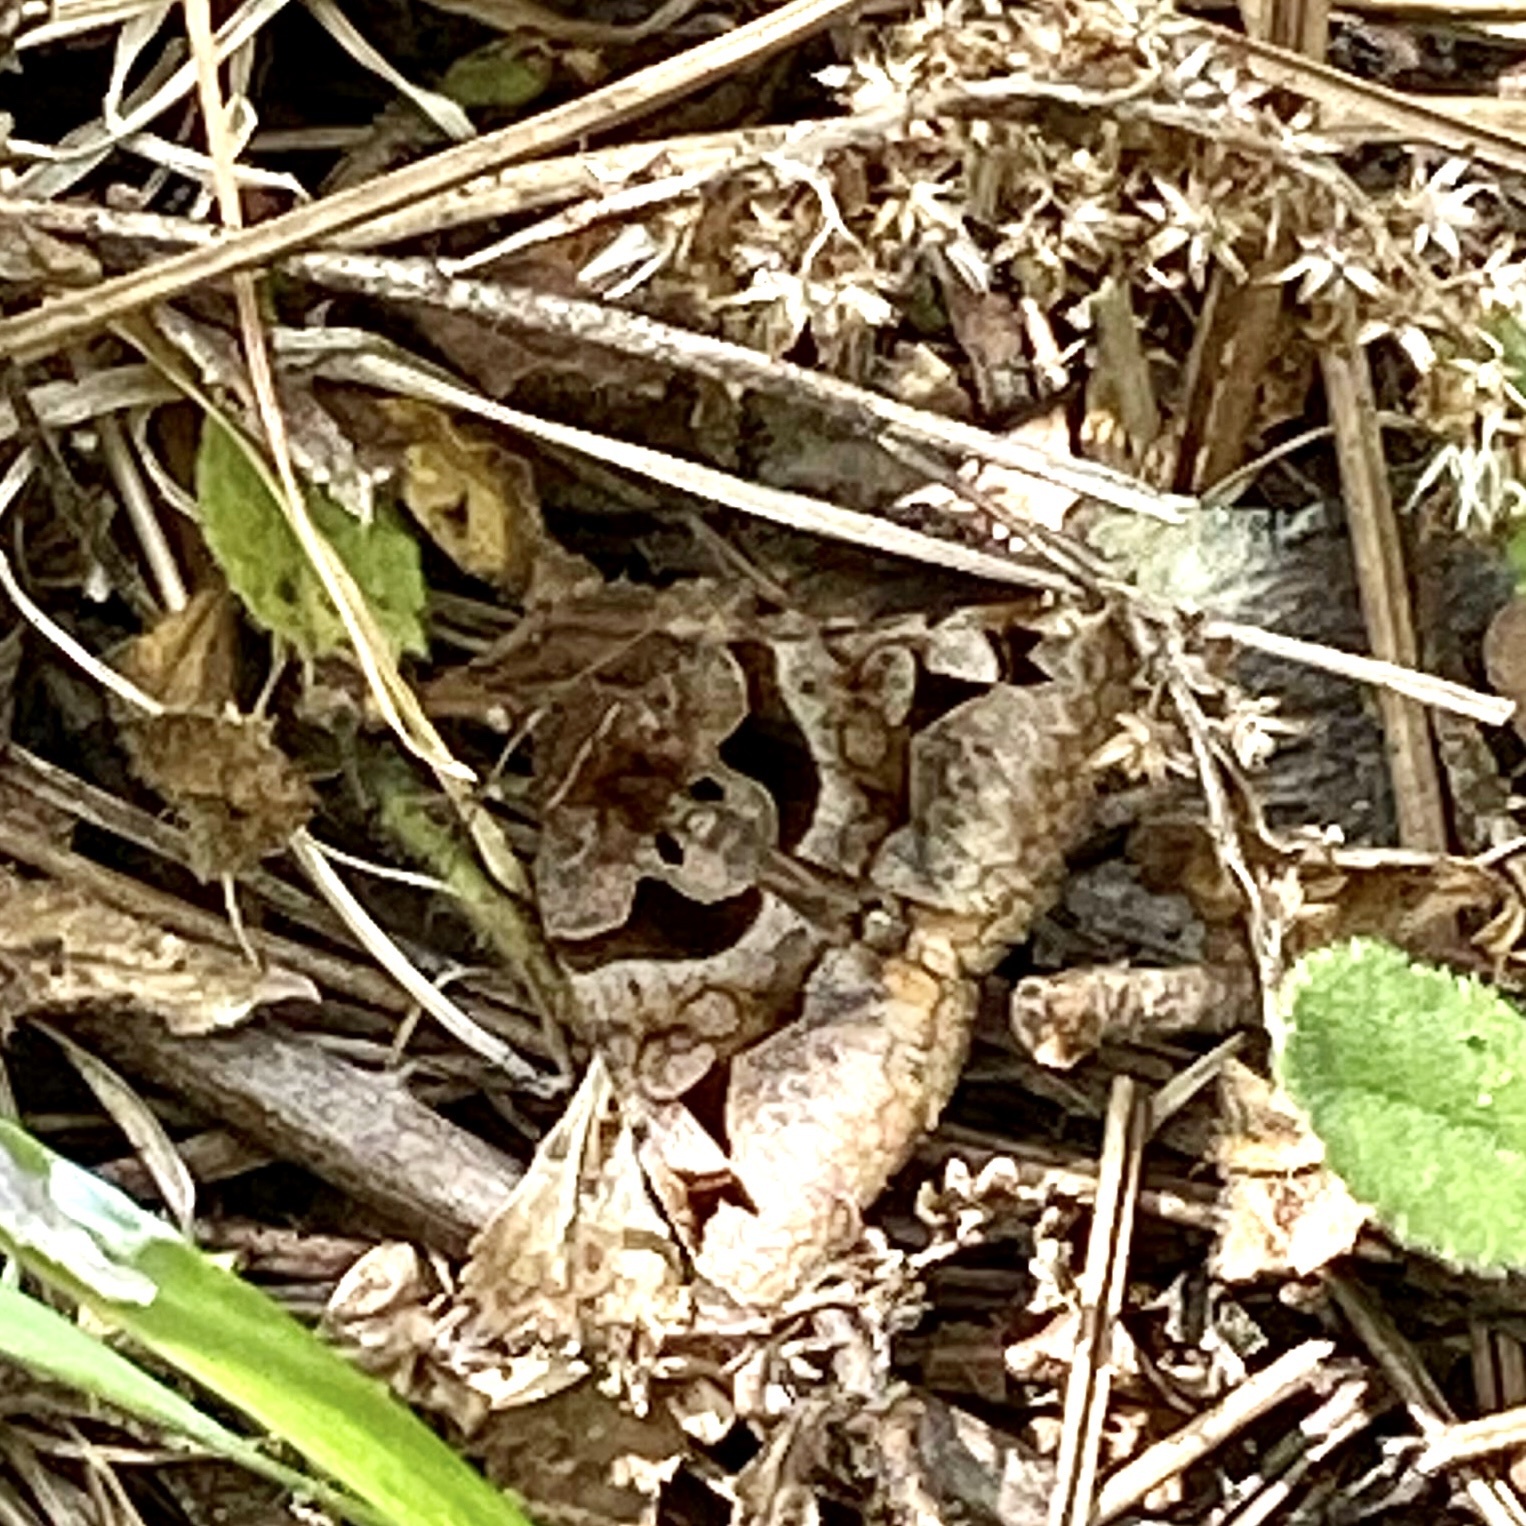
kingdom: Animalia
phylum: Arthropoda
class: Insecta
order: Lepidoptera
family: Erebidae
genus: Euclidia
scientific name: Euclidia cuspidea
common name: Toothed somberwing
